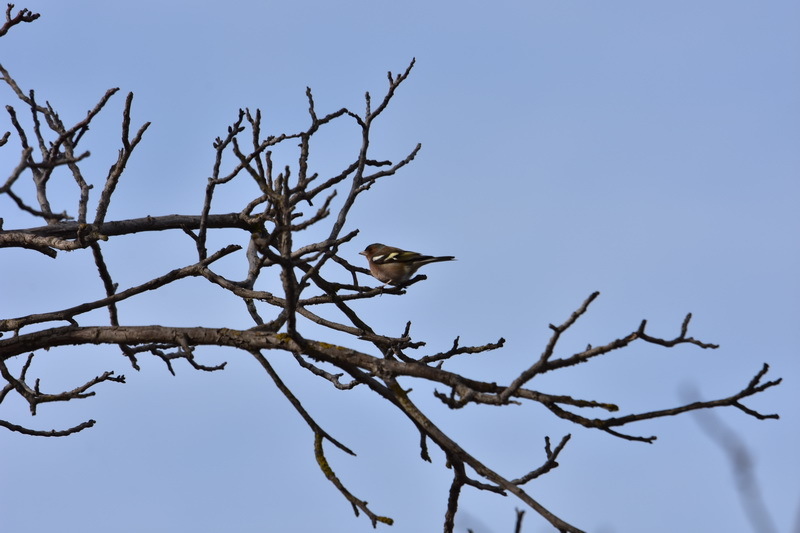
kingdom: Animalia
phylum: Chordata
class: Aves
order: Passeriformes
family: Fringillidae
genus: Fringilla
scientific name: Fringilla coelebs
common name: Common chaffinch
